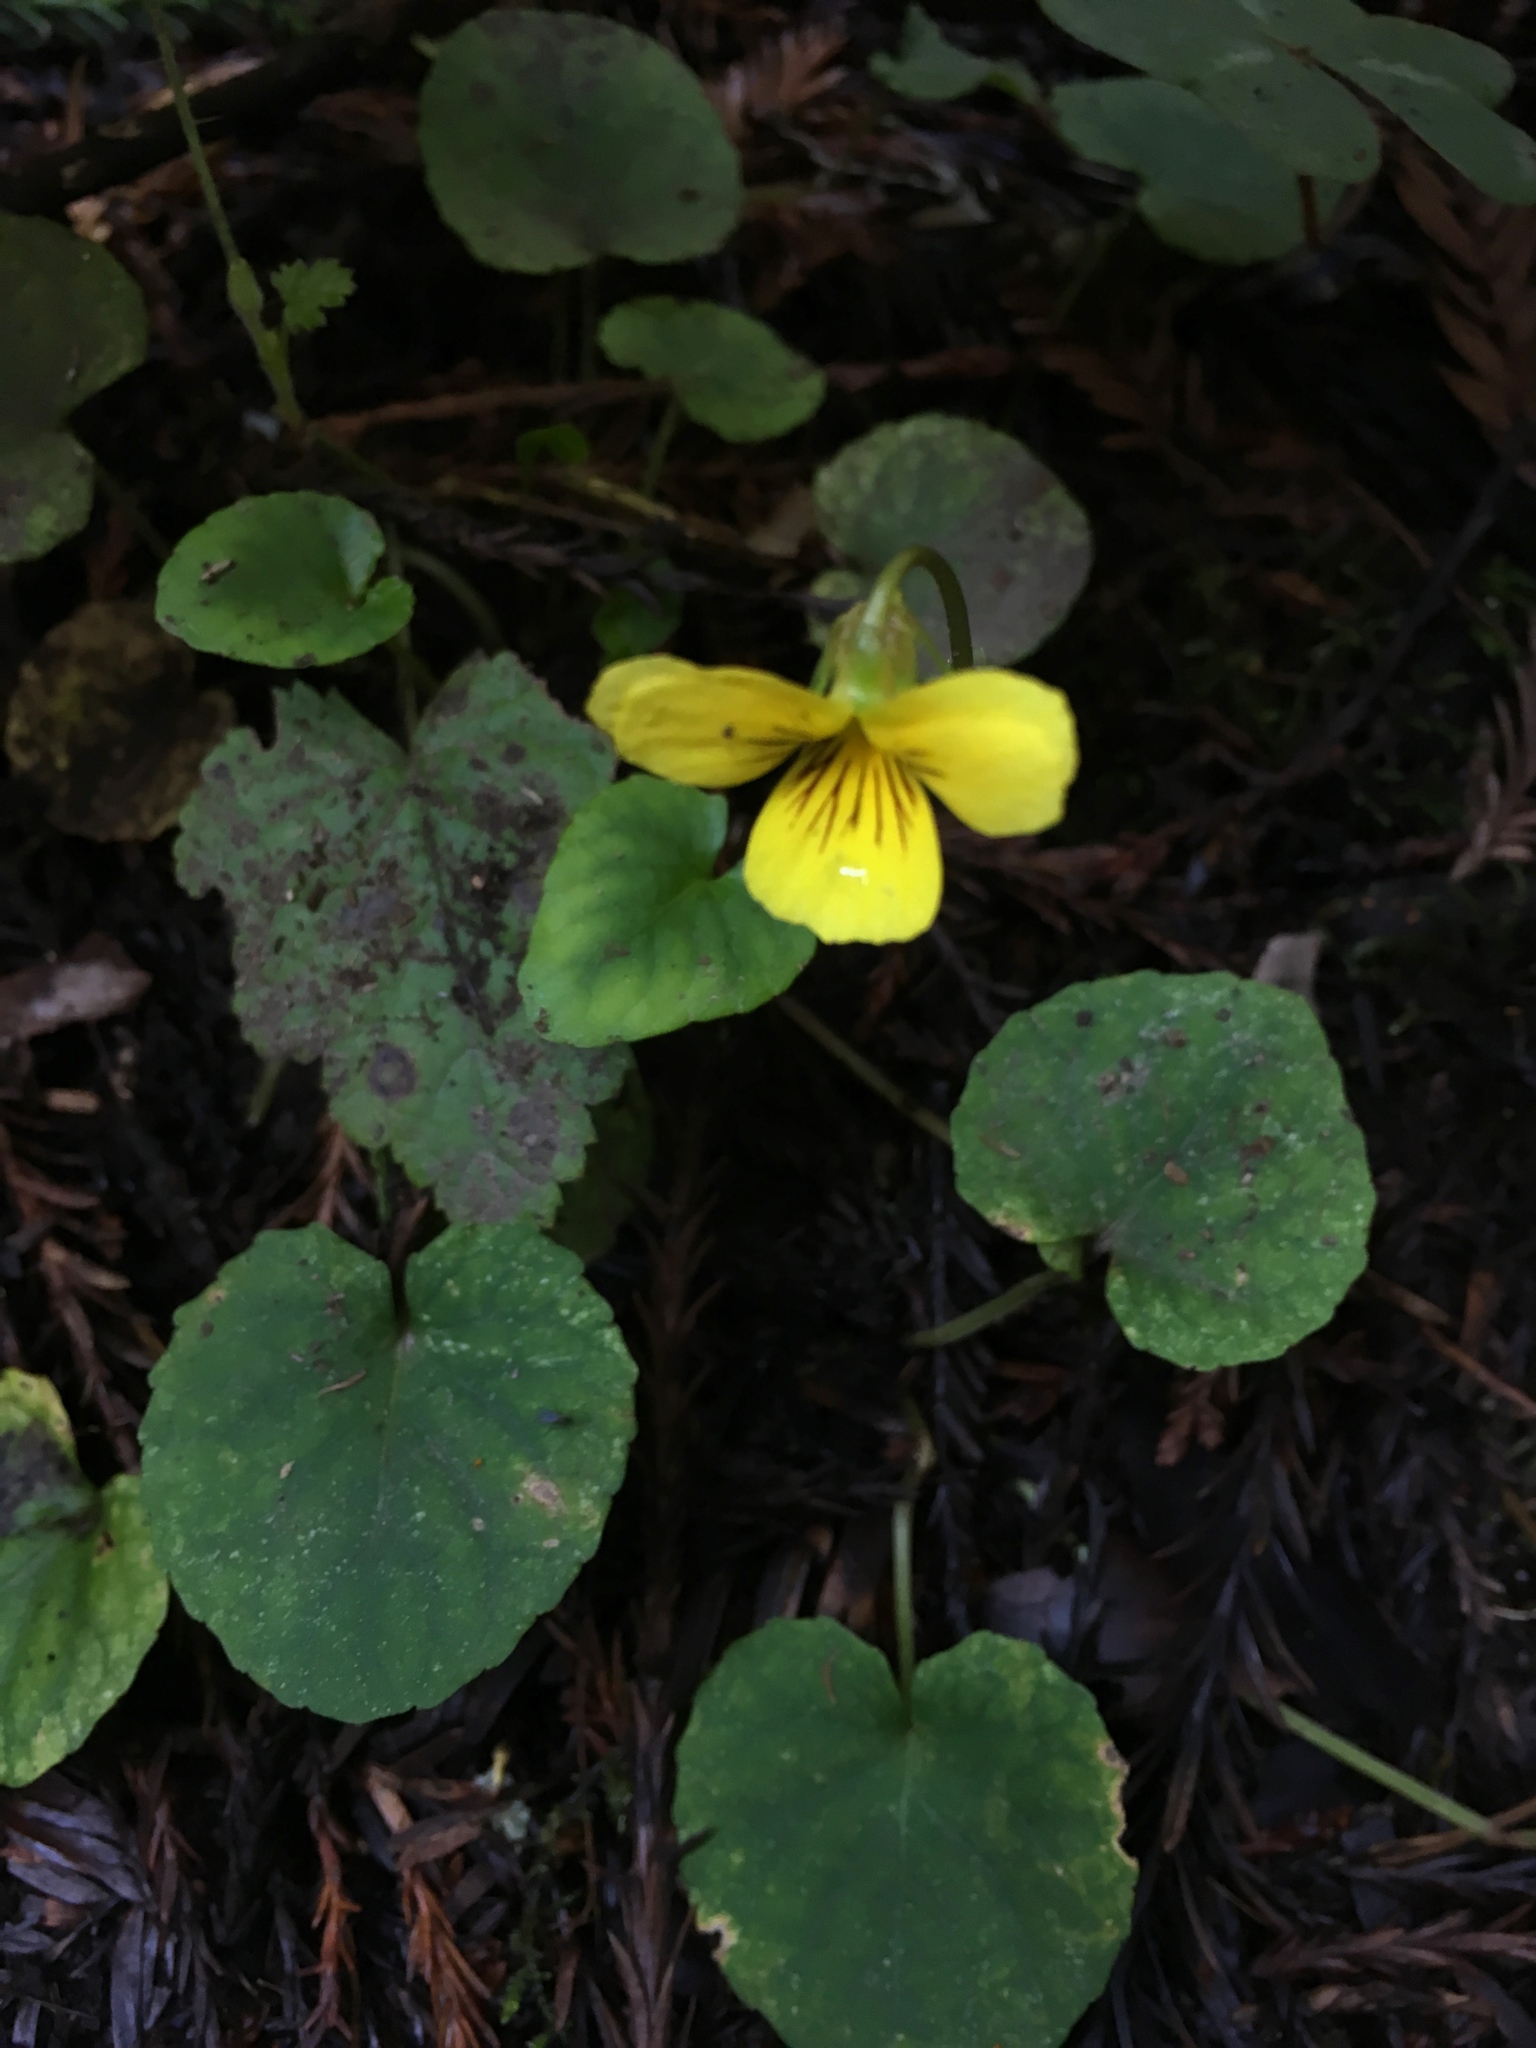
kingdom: Plantae
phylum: Tracheophyta
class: Magnoliopsida
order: Malpighiales
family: Violaceae
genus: Viola
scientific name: Viola sempervirens
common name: Evergreen violet
